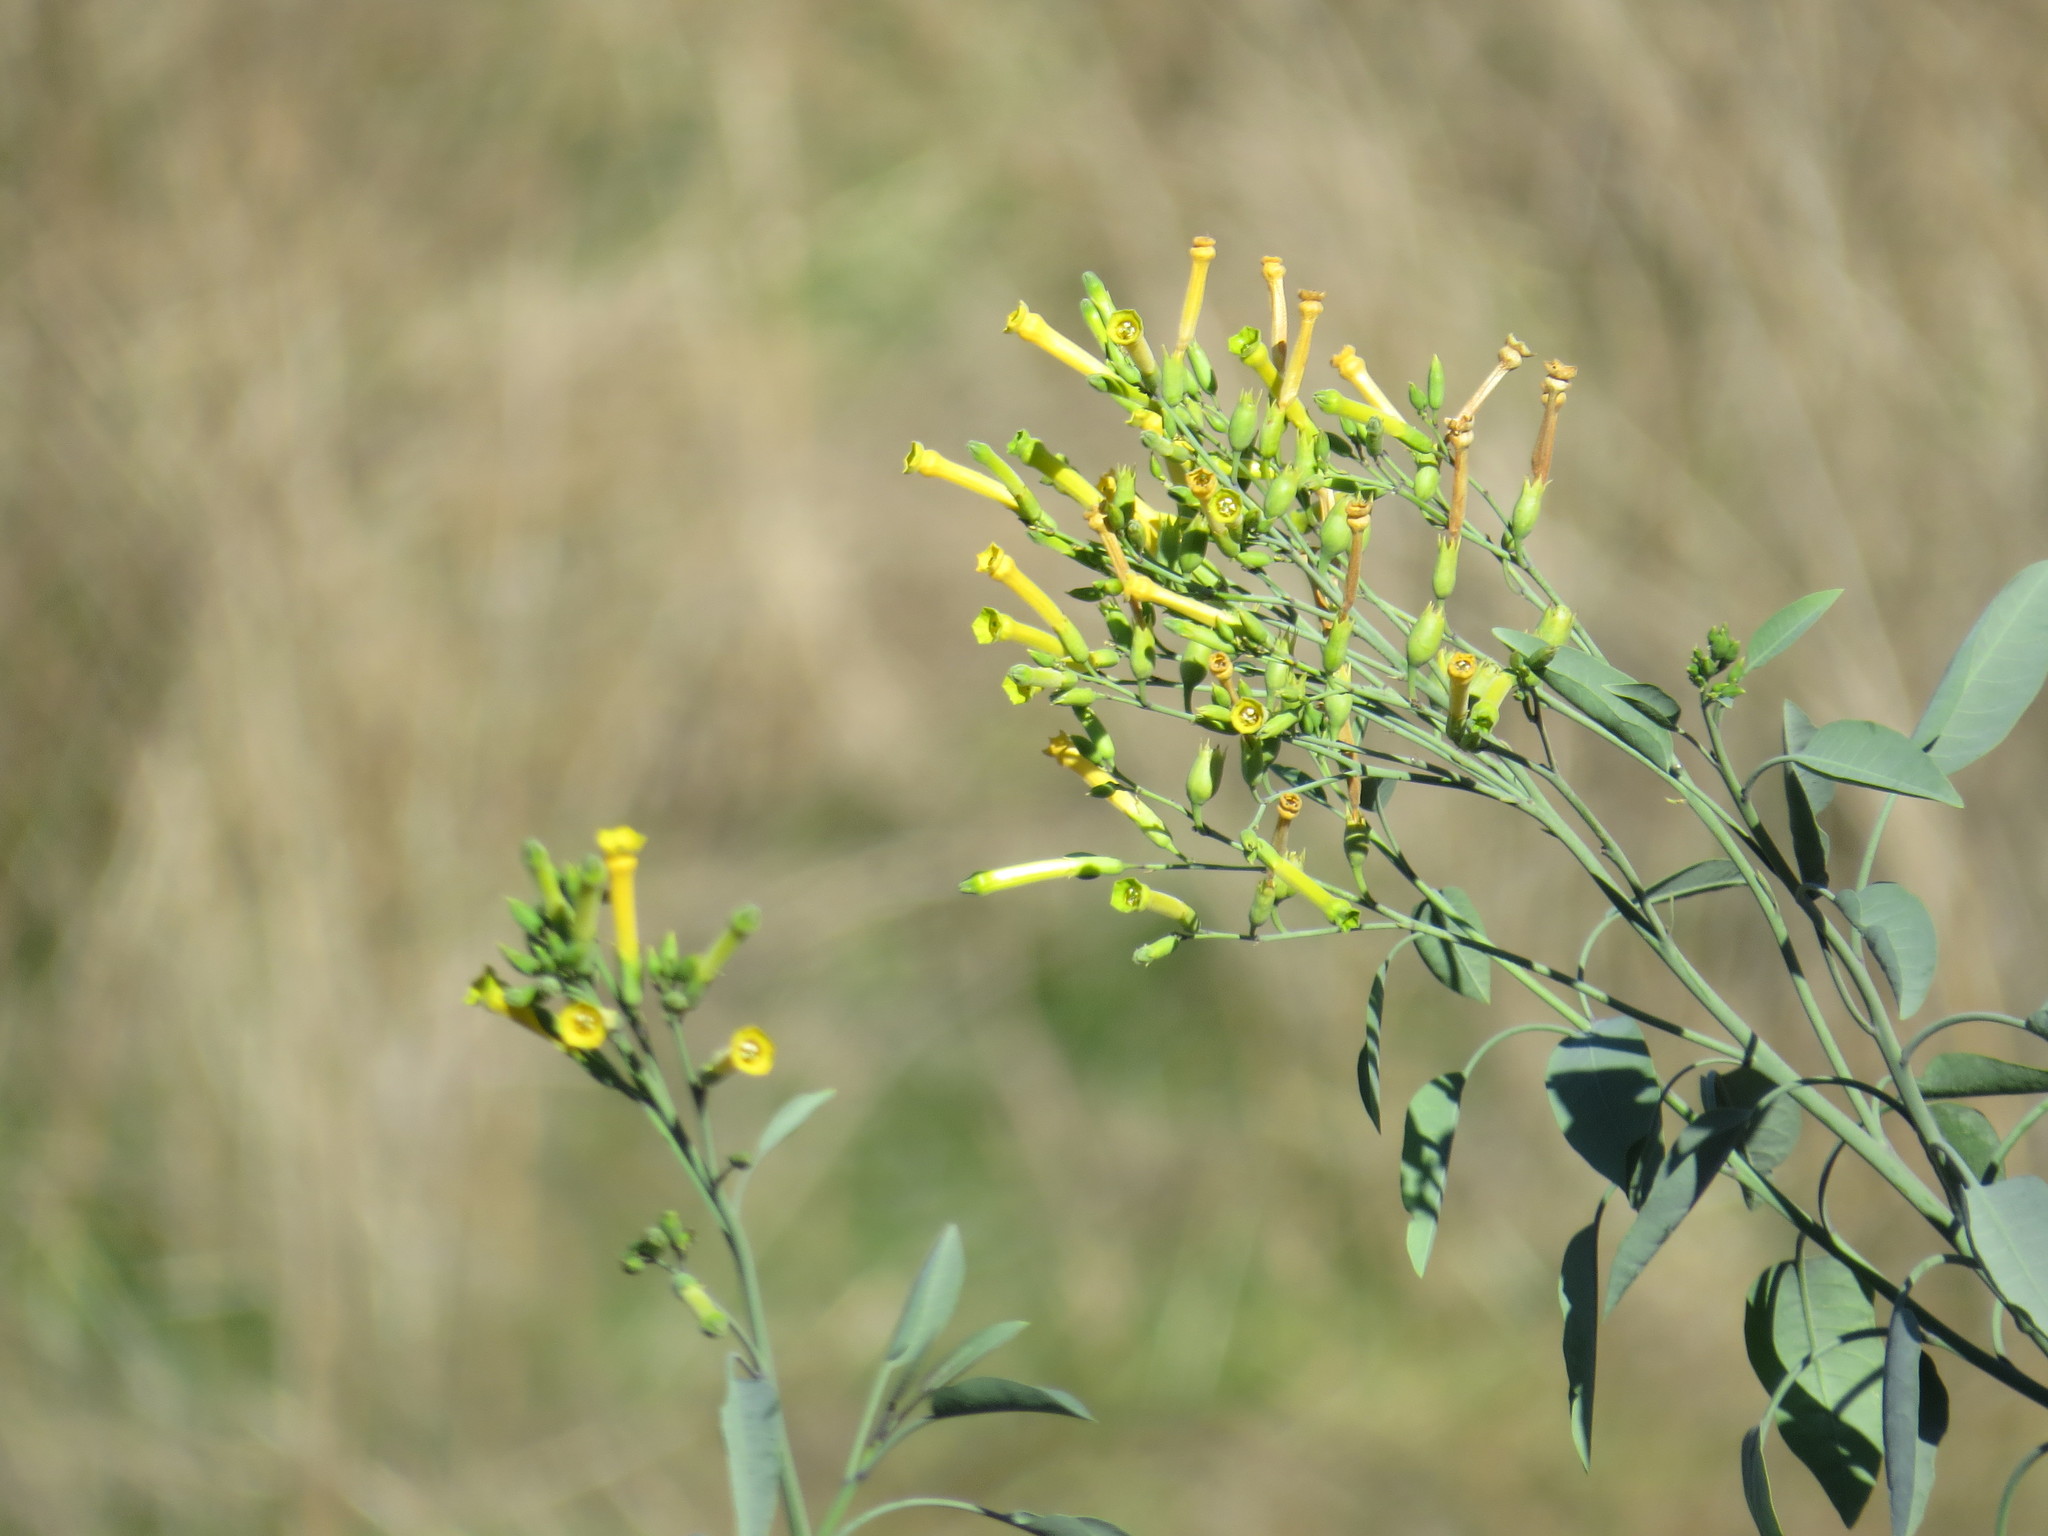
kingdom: Plantae
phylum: Tracheophyta
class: Magnoliopsida
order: Solanales
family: Solanaceae
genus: Nicotiana
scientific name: Nicotiana glauca
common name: Tree tobacco
